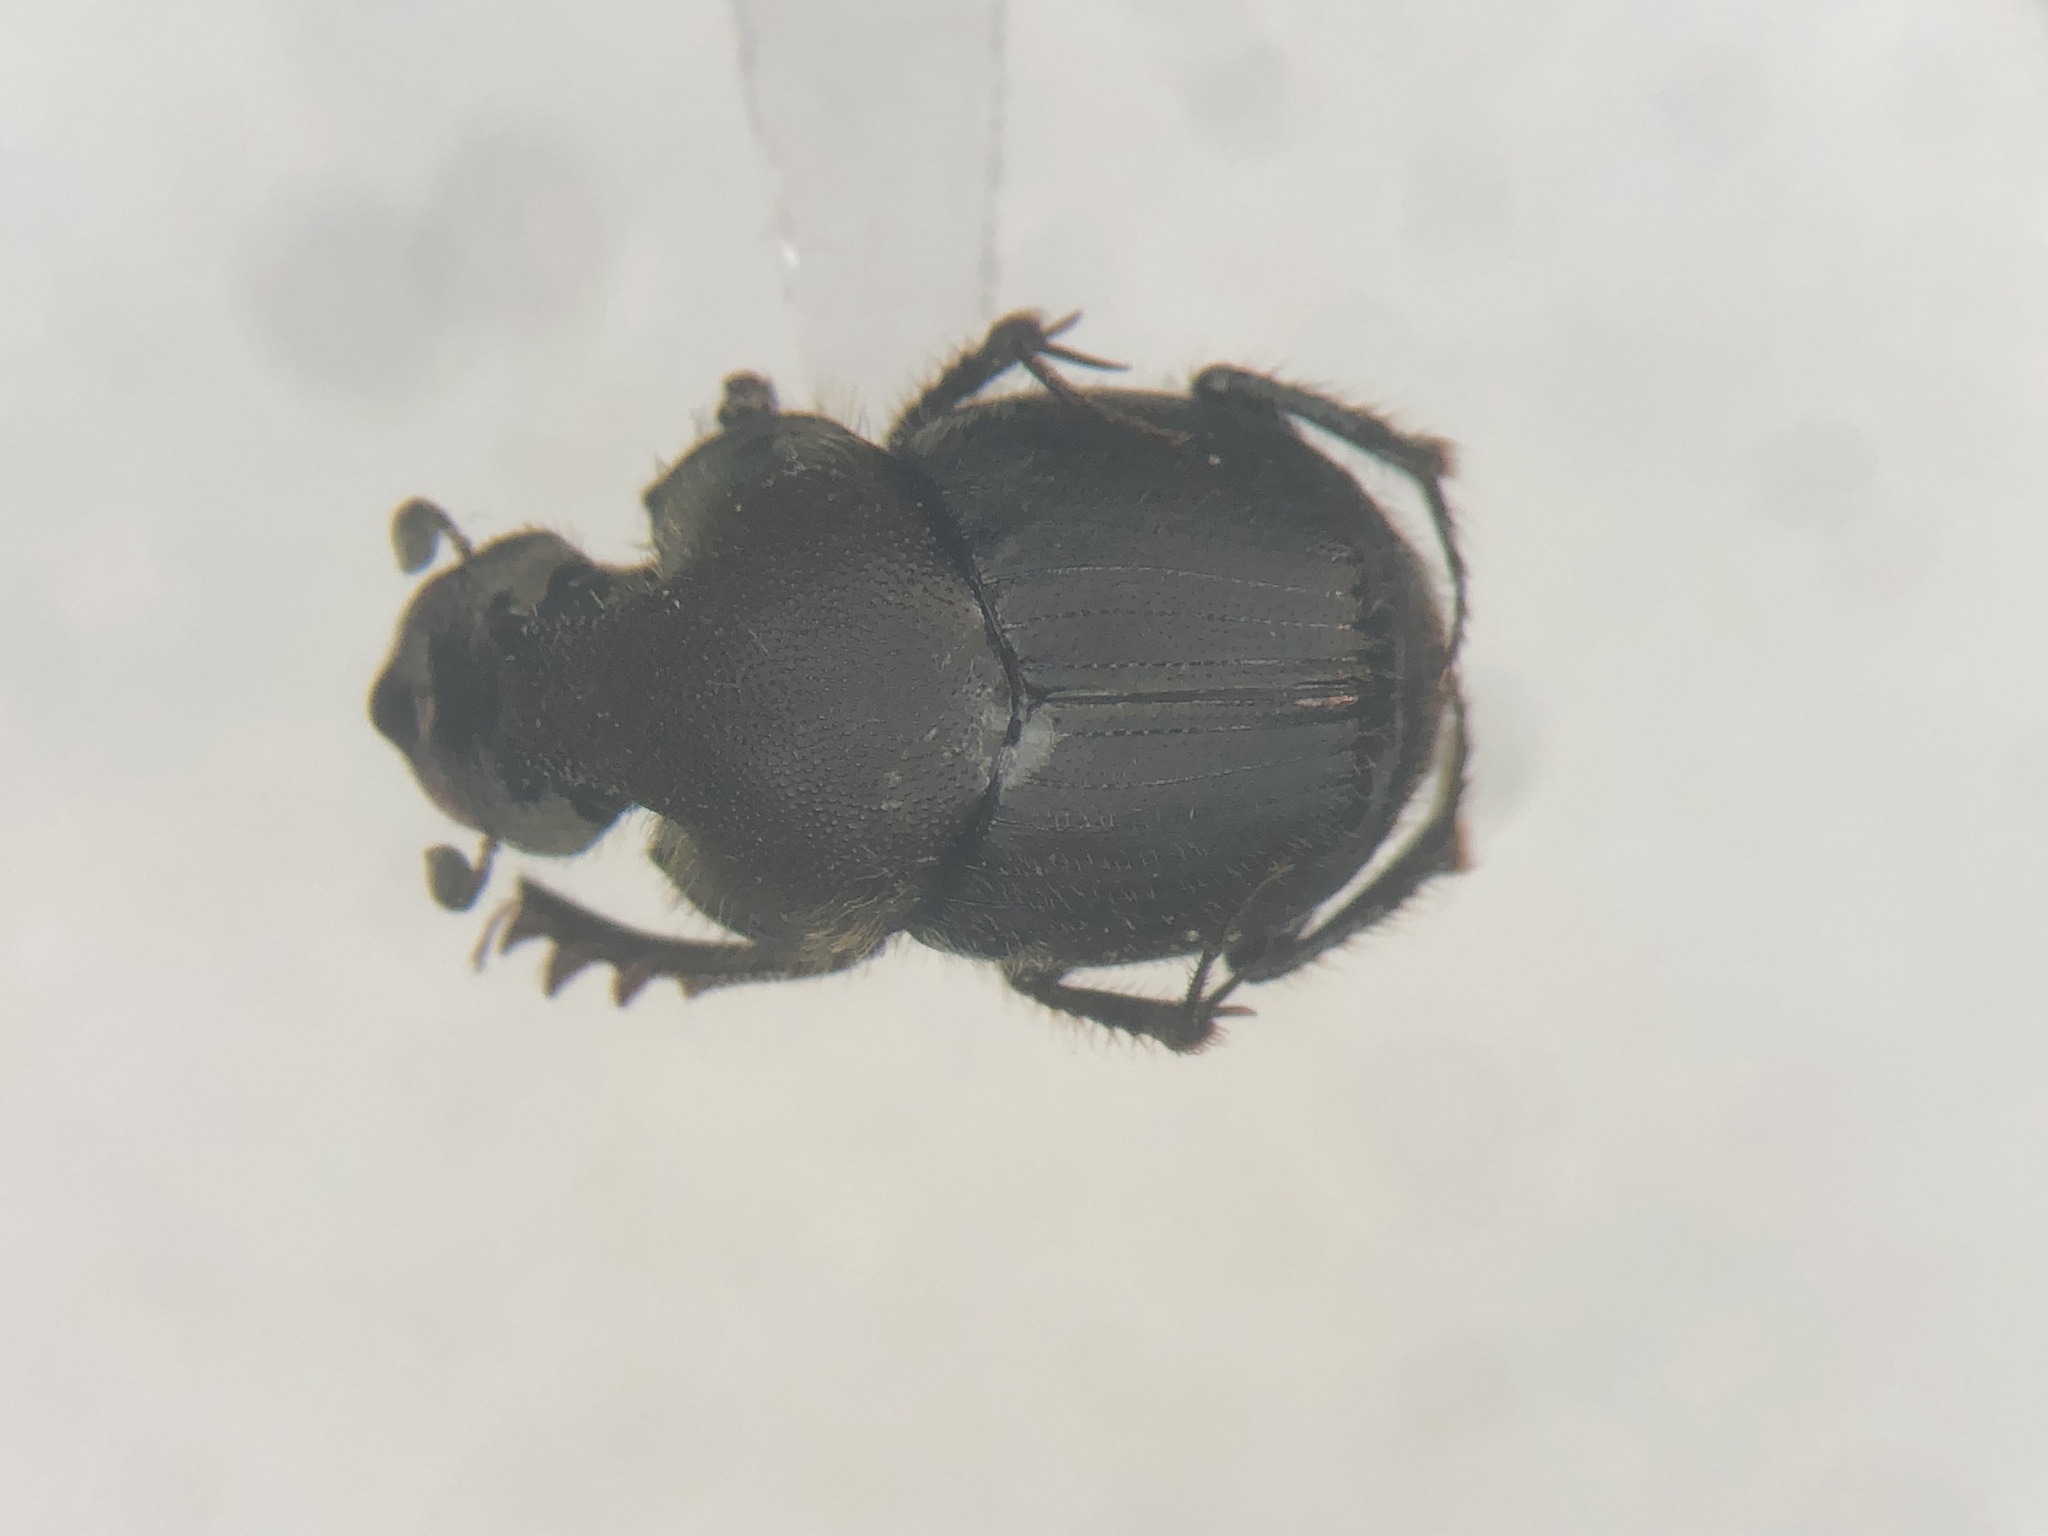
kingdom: Animalia
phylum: Arthropoda
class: Insecta
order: Coleoptera
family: Scarabaeidae
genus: Onthophagus
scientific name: Onthophagus hecate
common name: Scooped scarab
